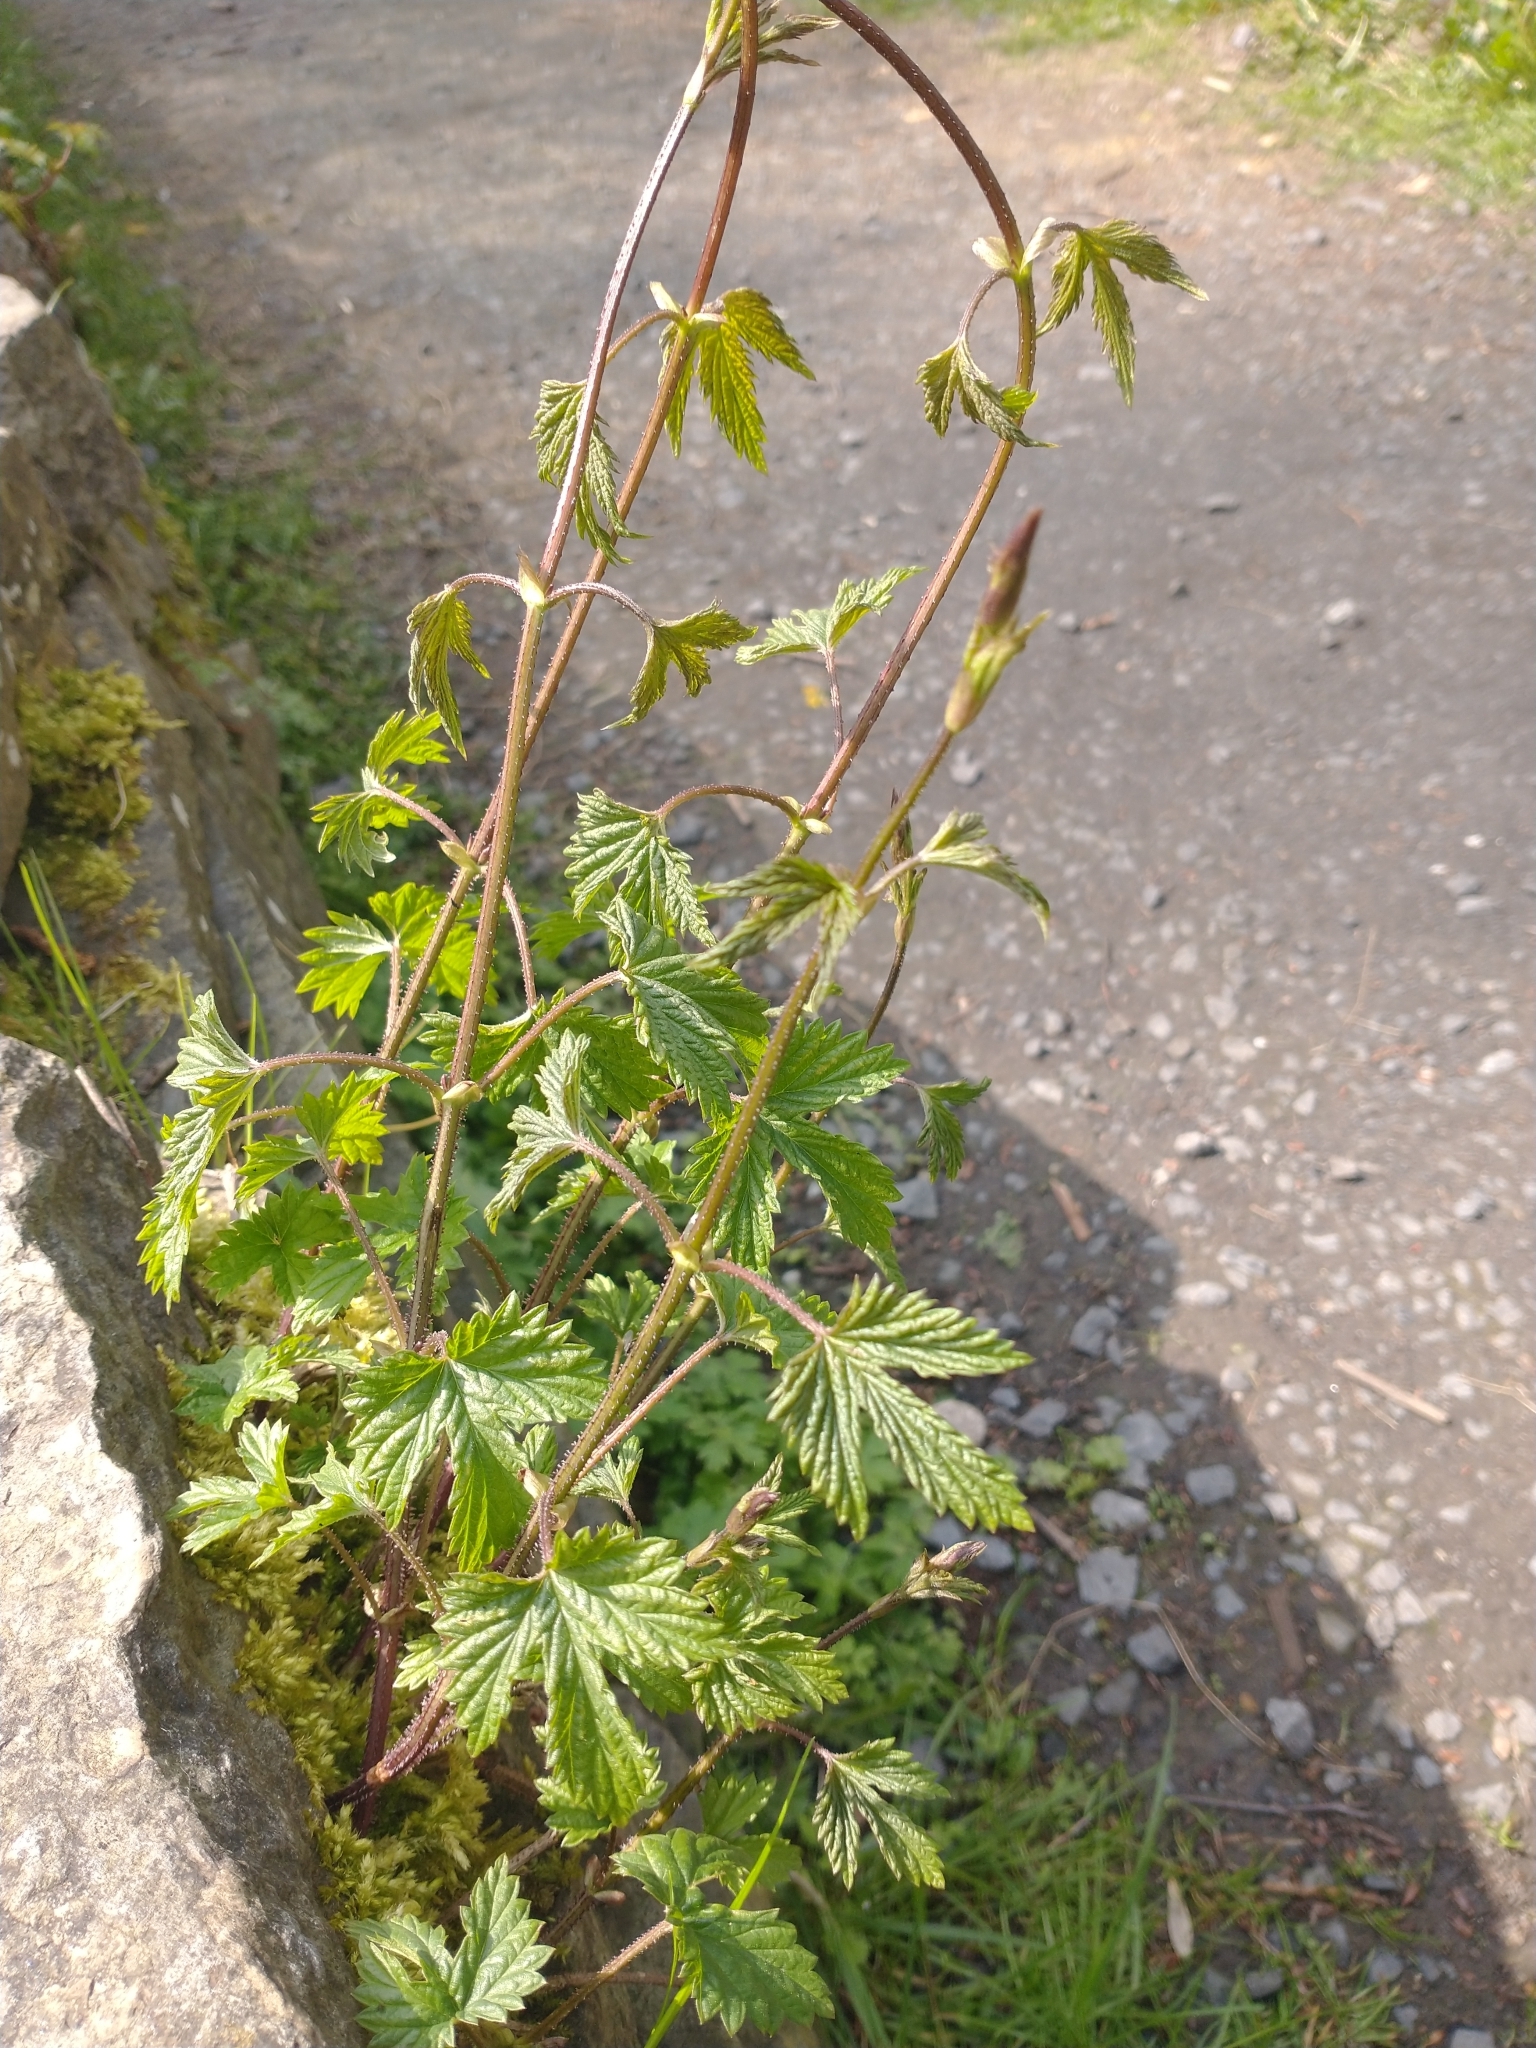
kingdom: Plantae
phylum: Tracheophyta
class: Magnoliopsida
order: Rosales
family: Cannabaceae
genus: Humulus
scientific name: Humulus lupulus
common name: Hop
